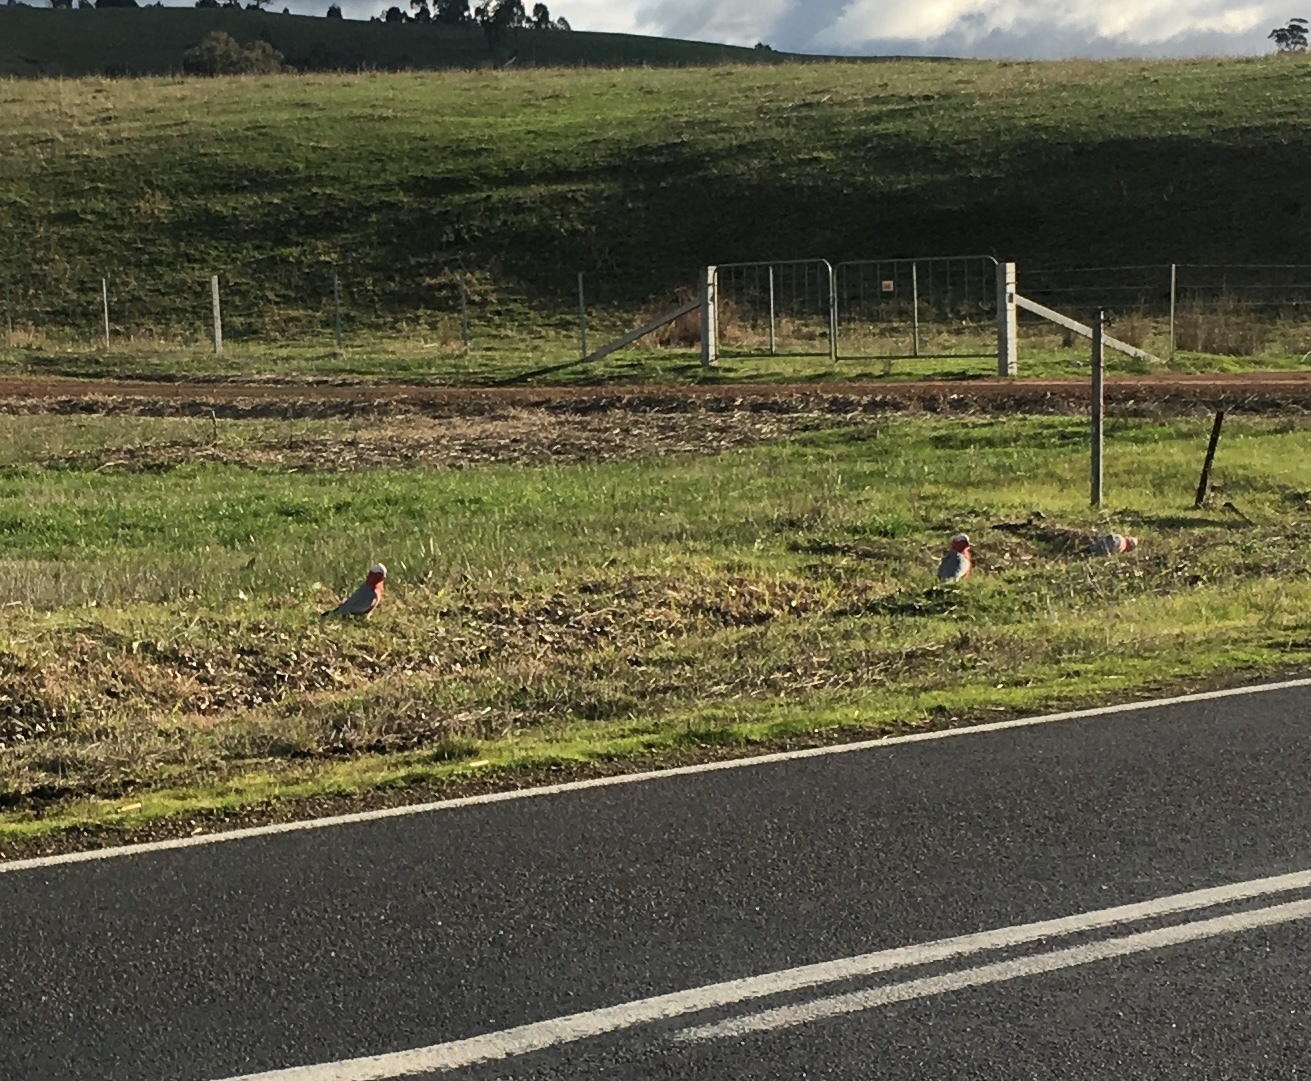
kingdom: Animalia
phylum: Chordata
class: Aves
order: Psittaciformes
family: Psittacidae
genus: Eolophus
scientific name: Eolophus roseicapilla
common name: Galah
